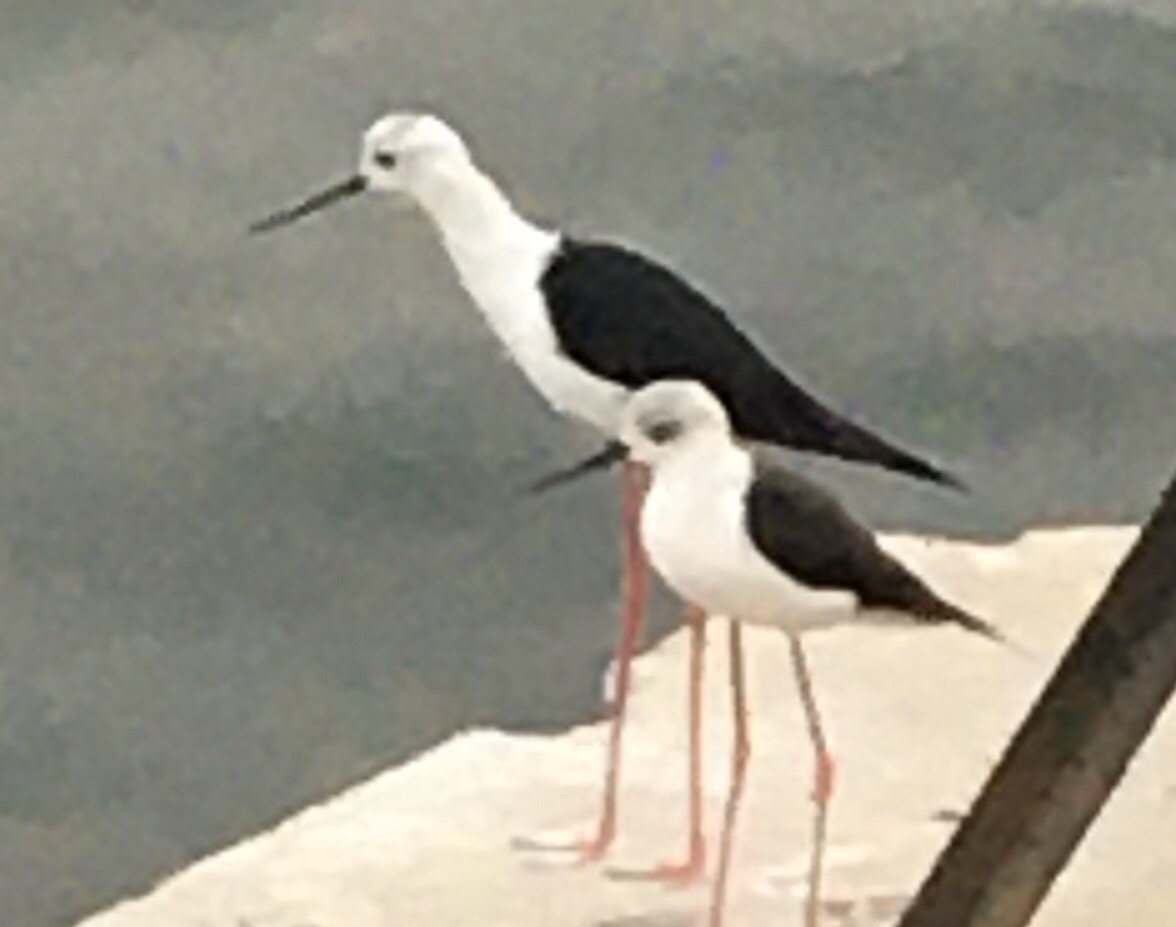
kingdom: Animalia
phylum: Chordata
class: Aves
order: Charadriiformes
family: Recurvirostridae
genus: Himantopus
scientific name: Himantopus himantopus
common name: Black-winged stilt
